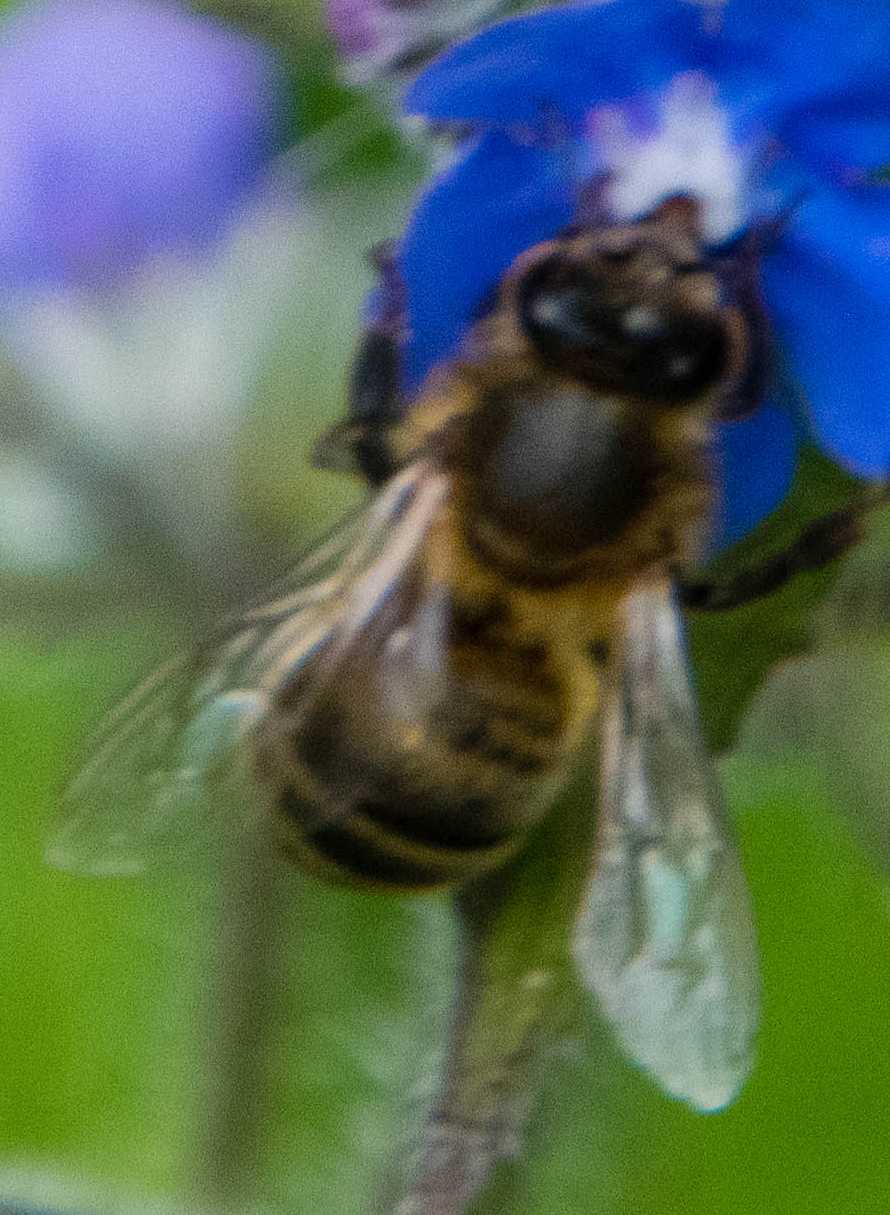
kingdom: Animalia
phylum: Arthropoda
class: Insecta
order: Hymenoptera
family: Apidae
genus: Apis
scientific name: Apis mellifera
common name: Honey bee
